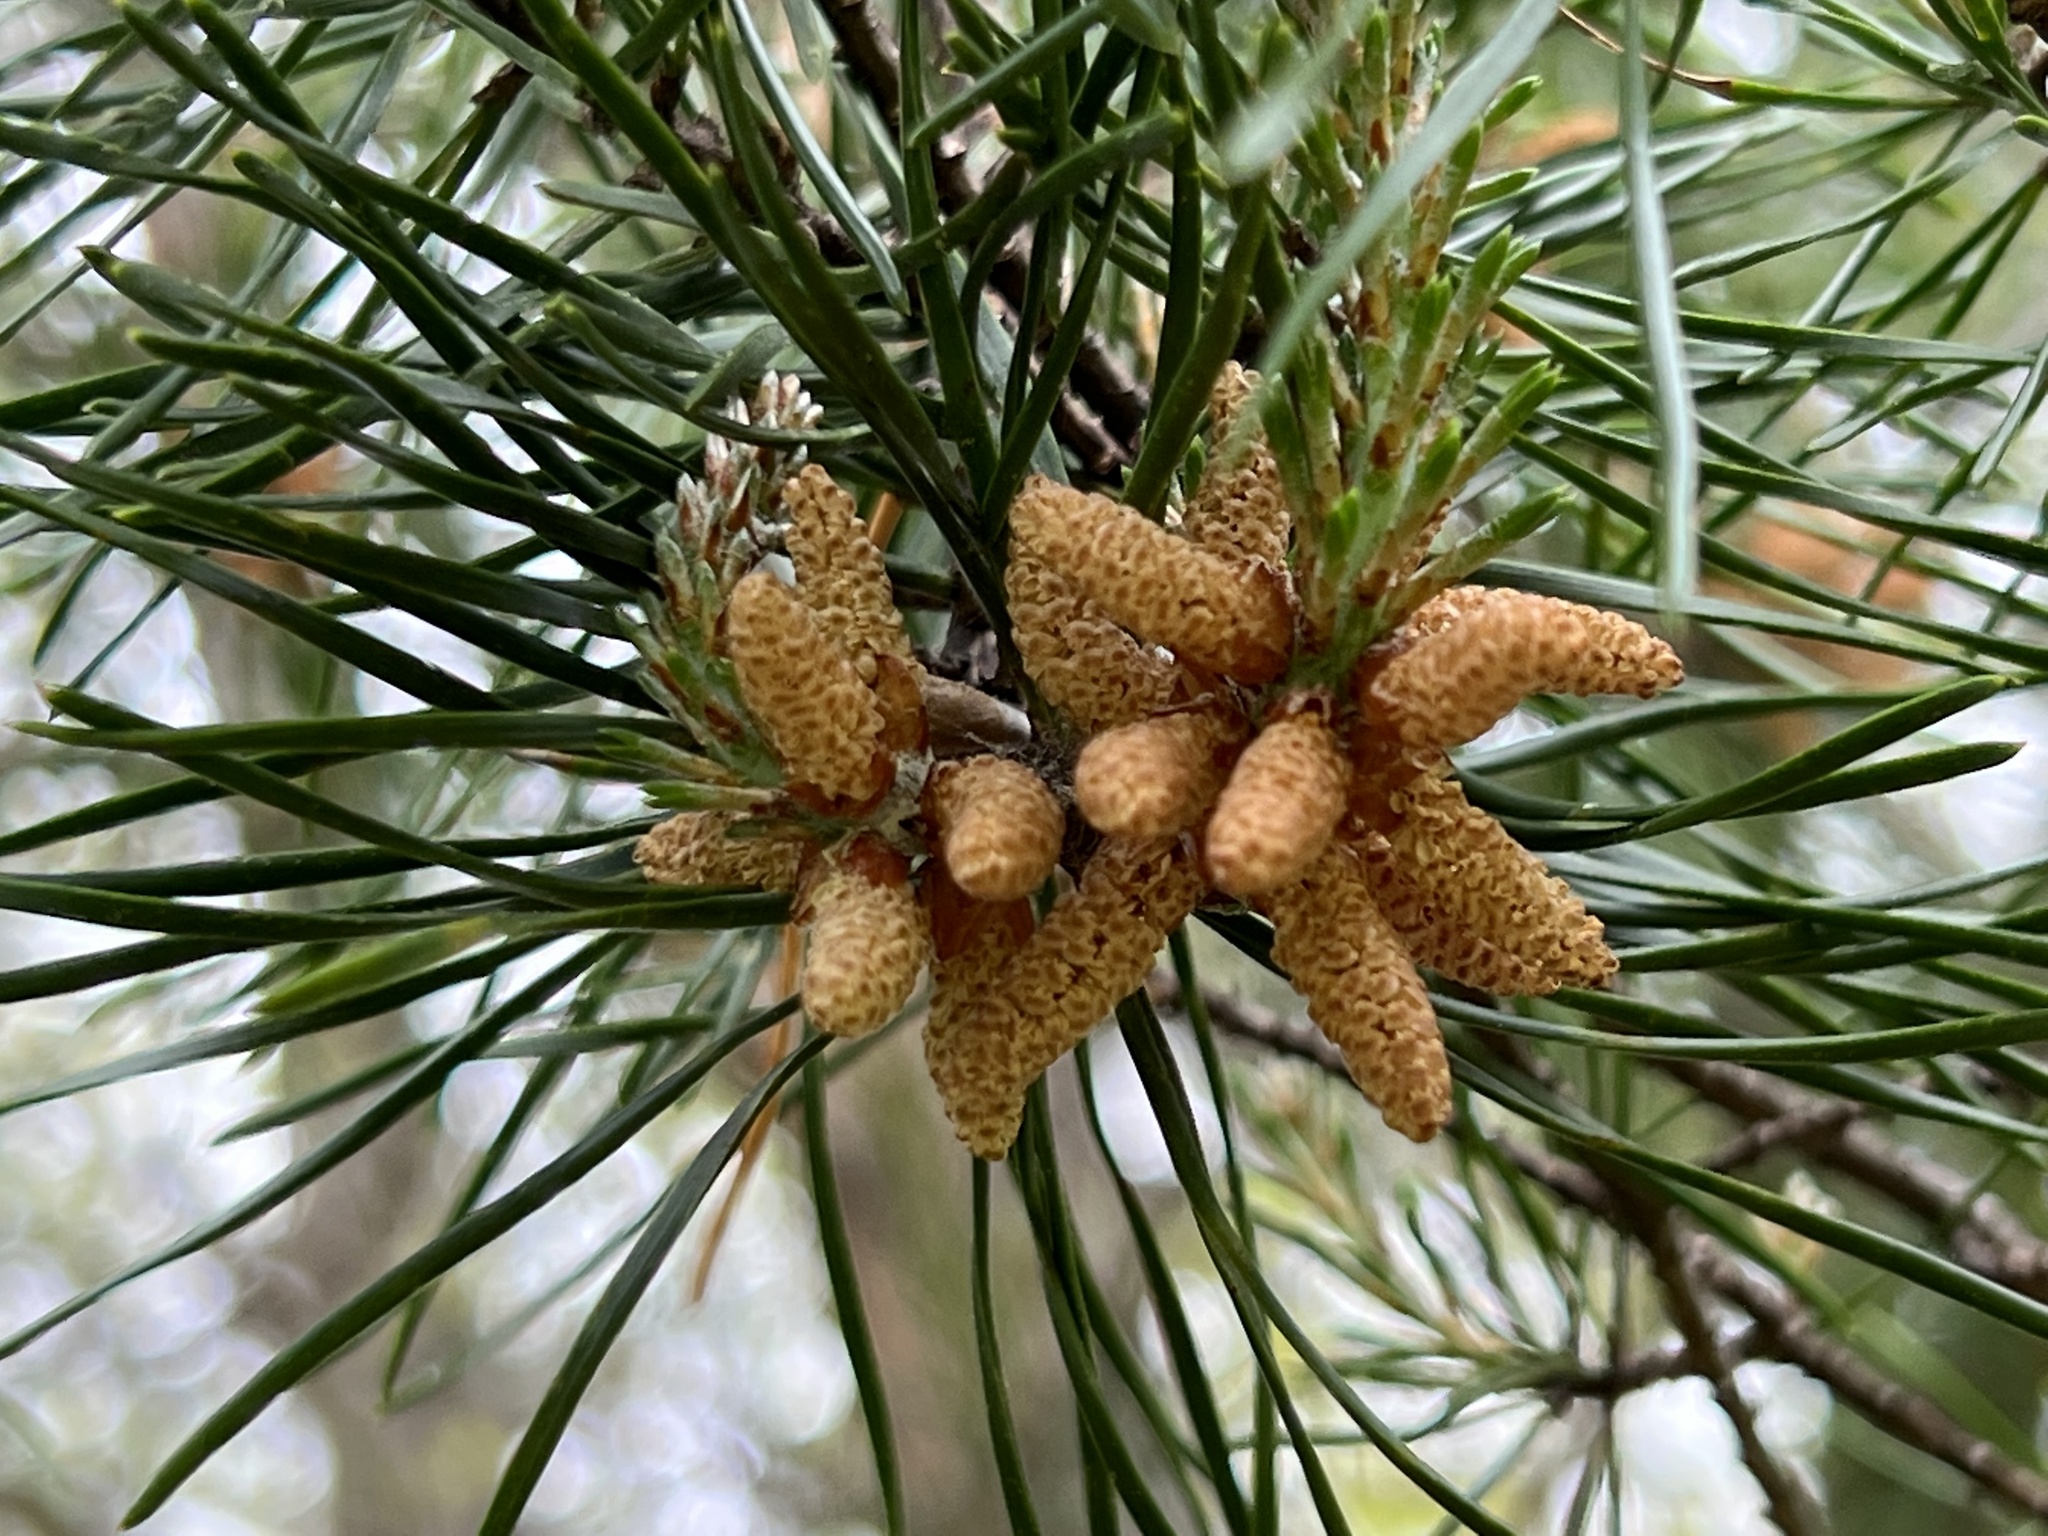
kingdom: Fungi
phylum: Basidiomycota
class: Pucciniomycetes
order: Pucciniales
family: Cronartiaceae
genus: Cronartium
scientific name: Cronartium quercuum
